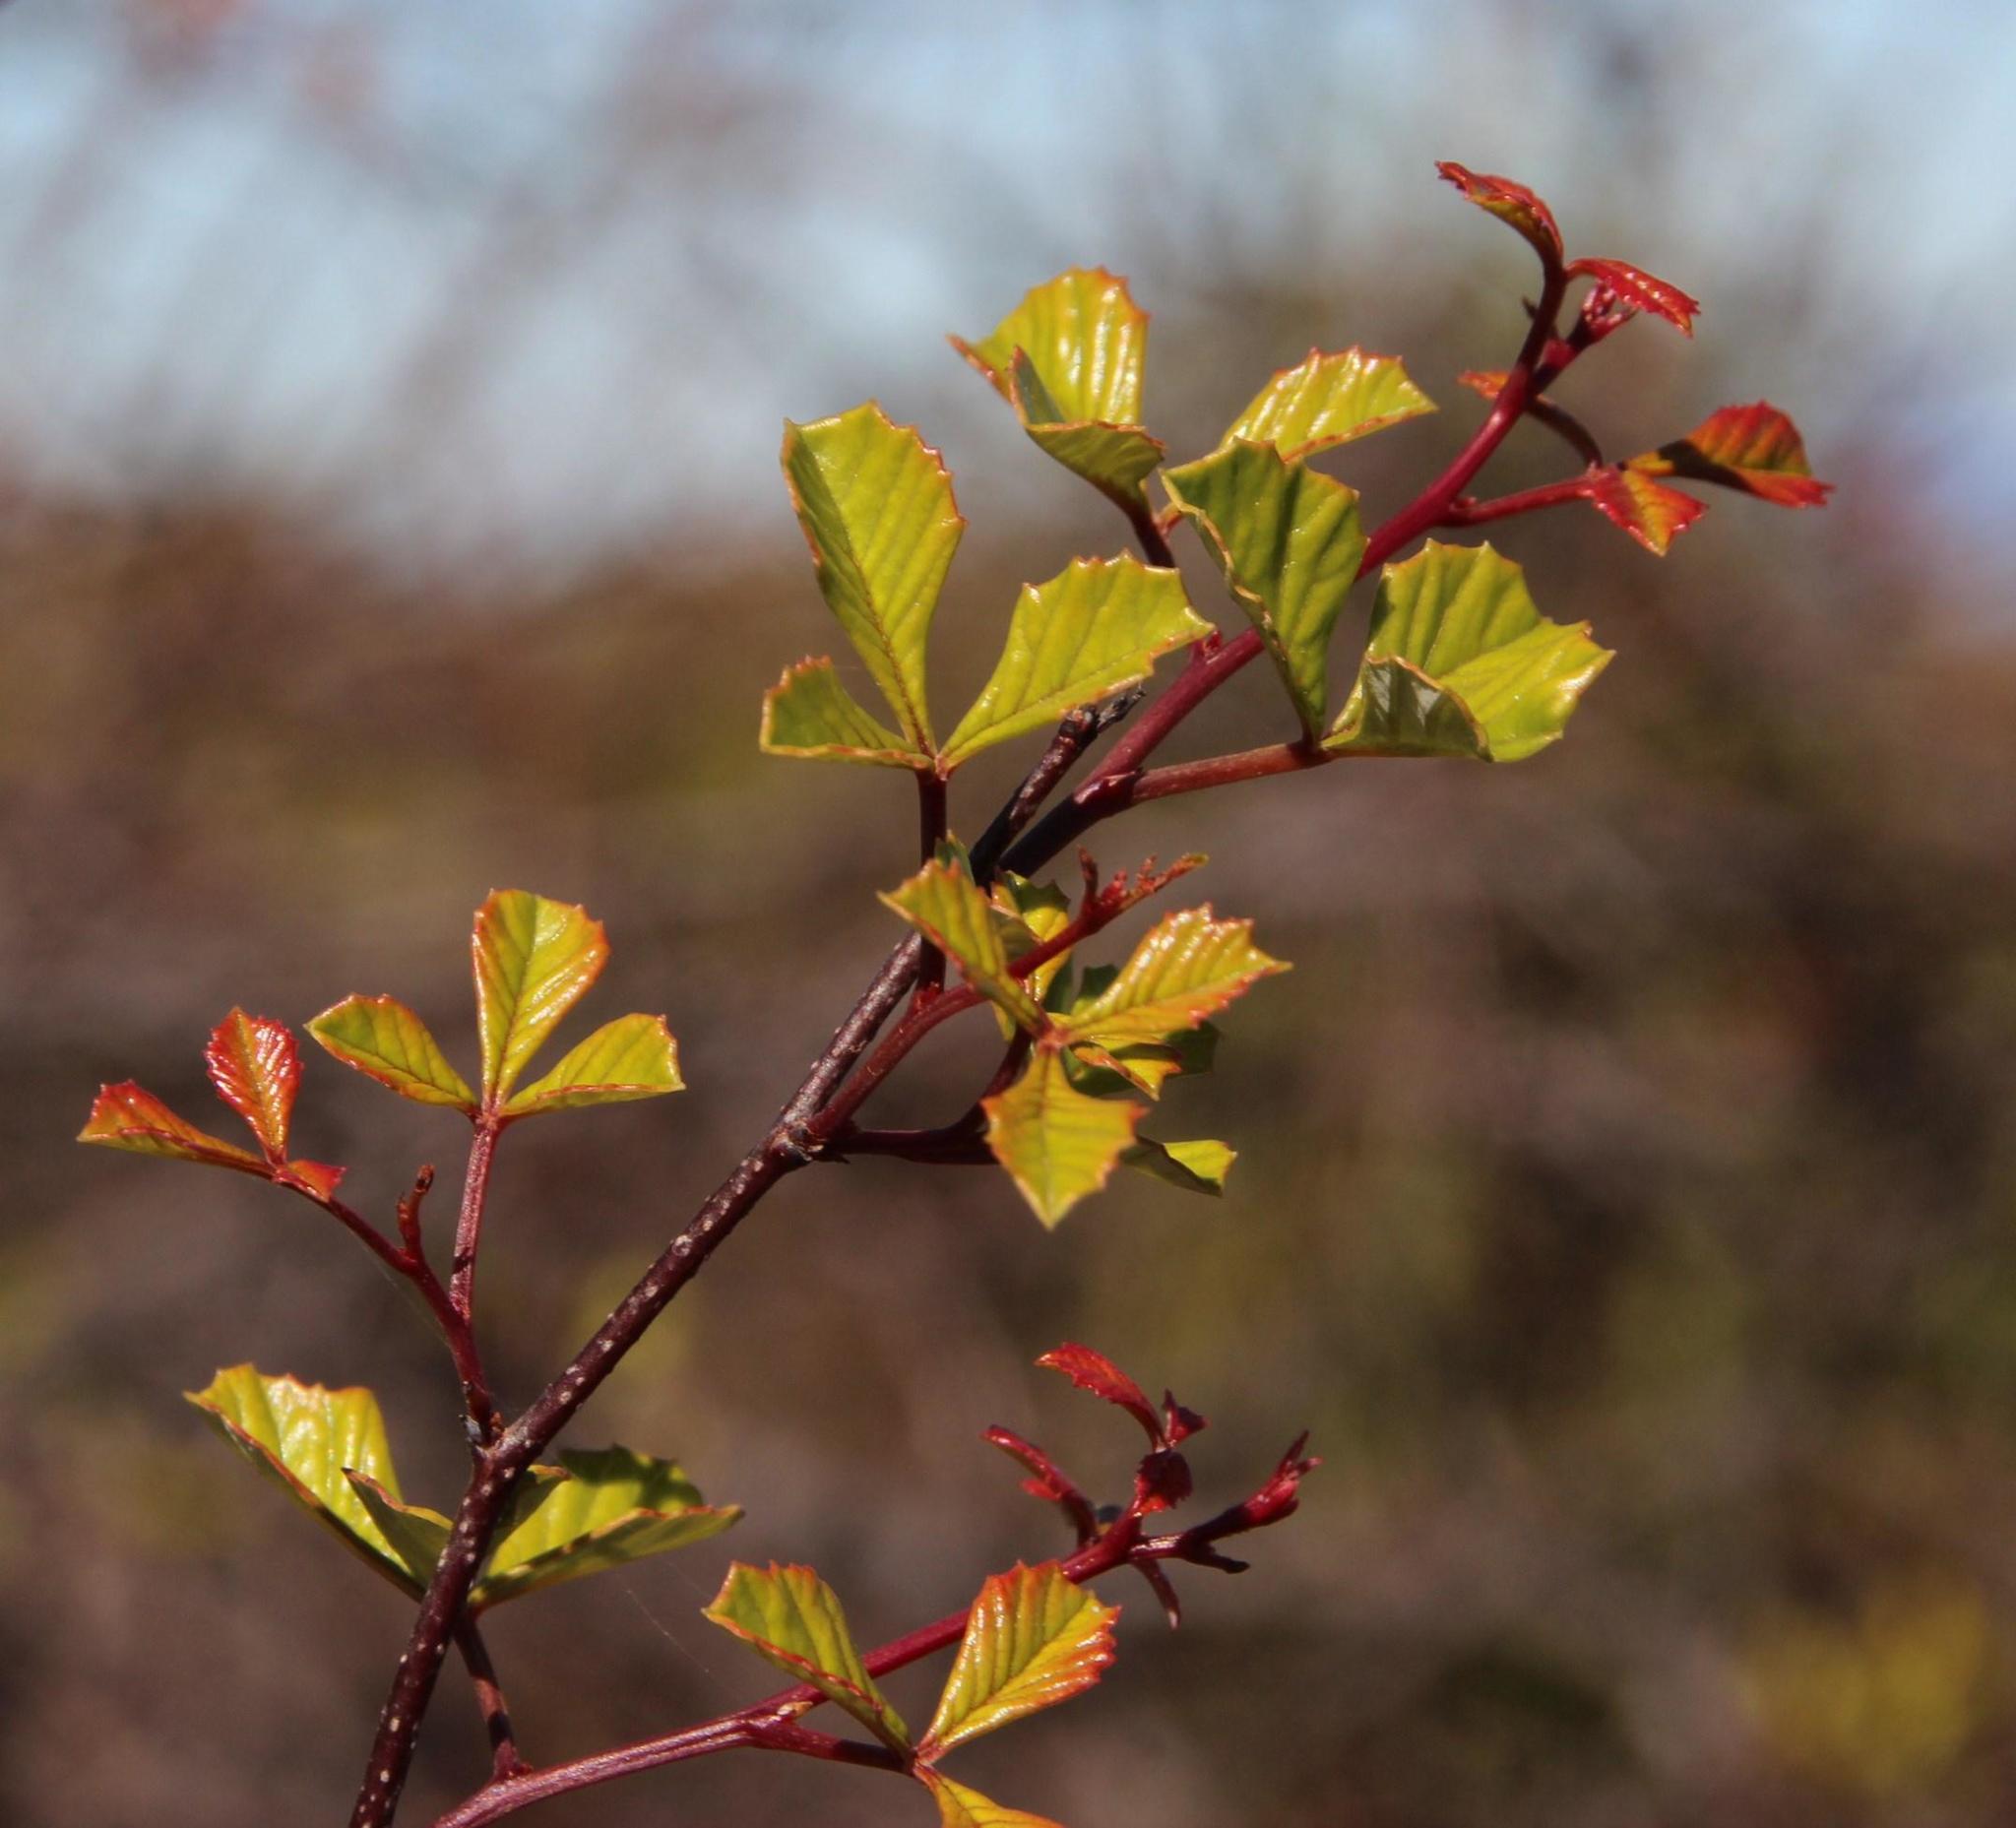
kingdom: Plantae
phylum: Tracheophyta
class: Magnoliopsida
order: Sapindales
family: Anacardiaceae
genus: Searsia
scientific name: Searsia dissecta
